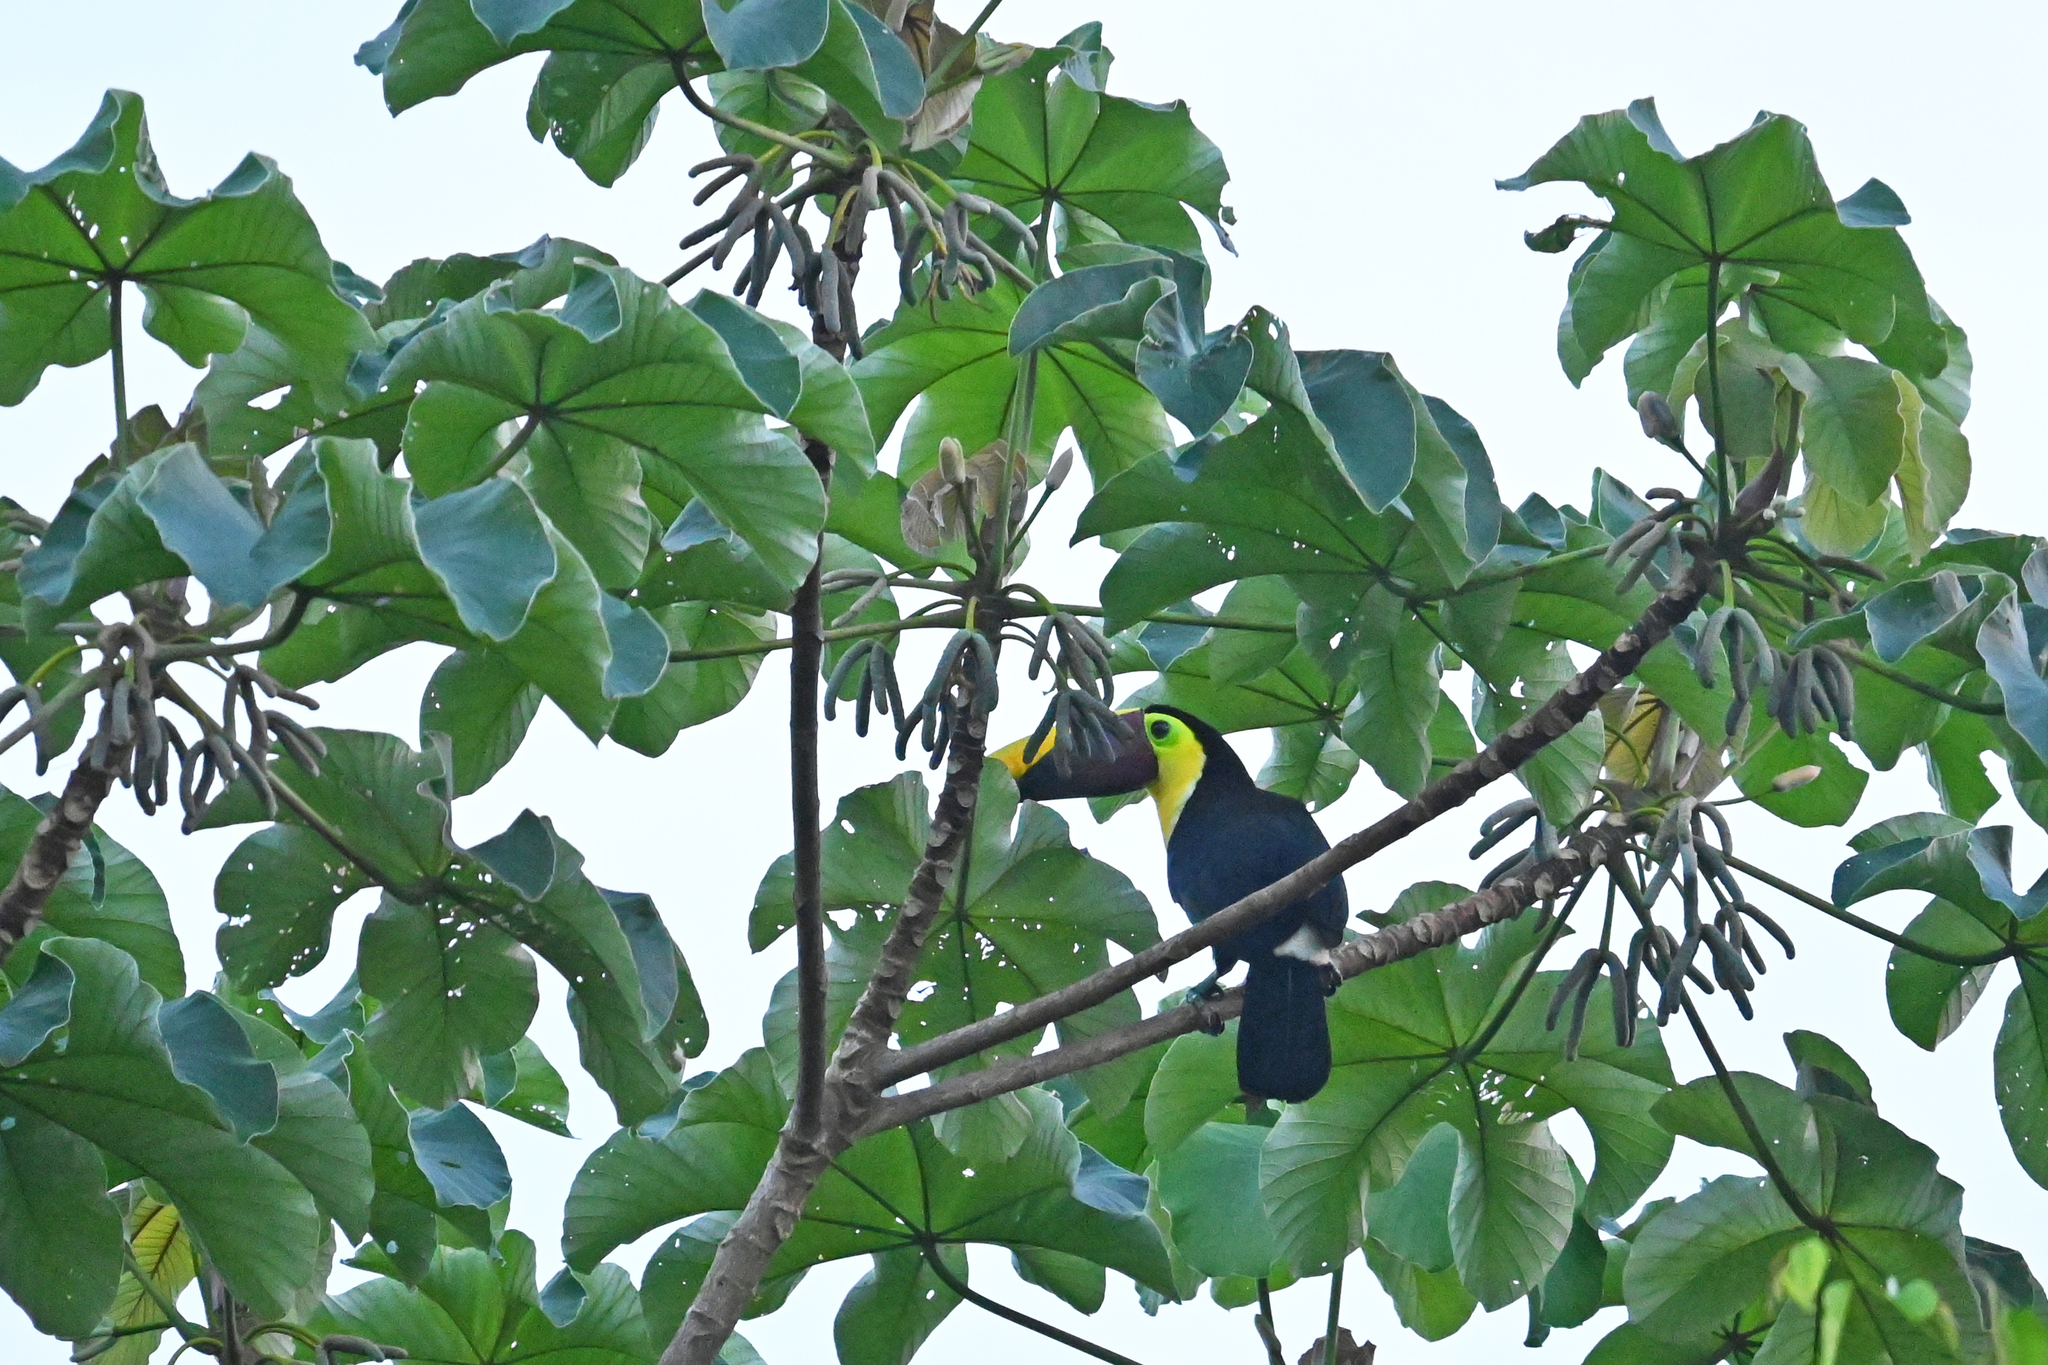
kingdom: Animalia
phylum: Chordata
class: Aves
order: Piciformes
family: Ramphastidae
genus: Ramphastos
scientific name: Ramphastos ambiguus
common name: Yellow-throated toucan
